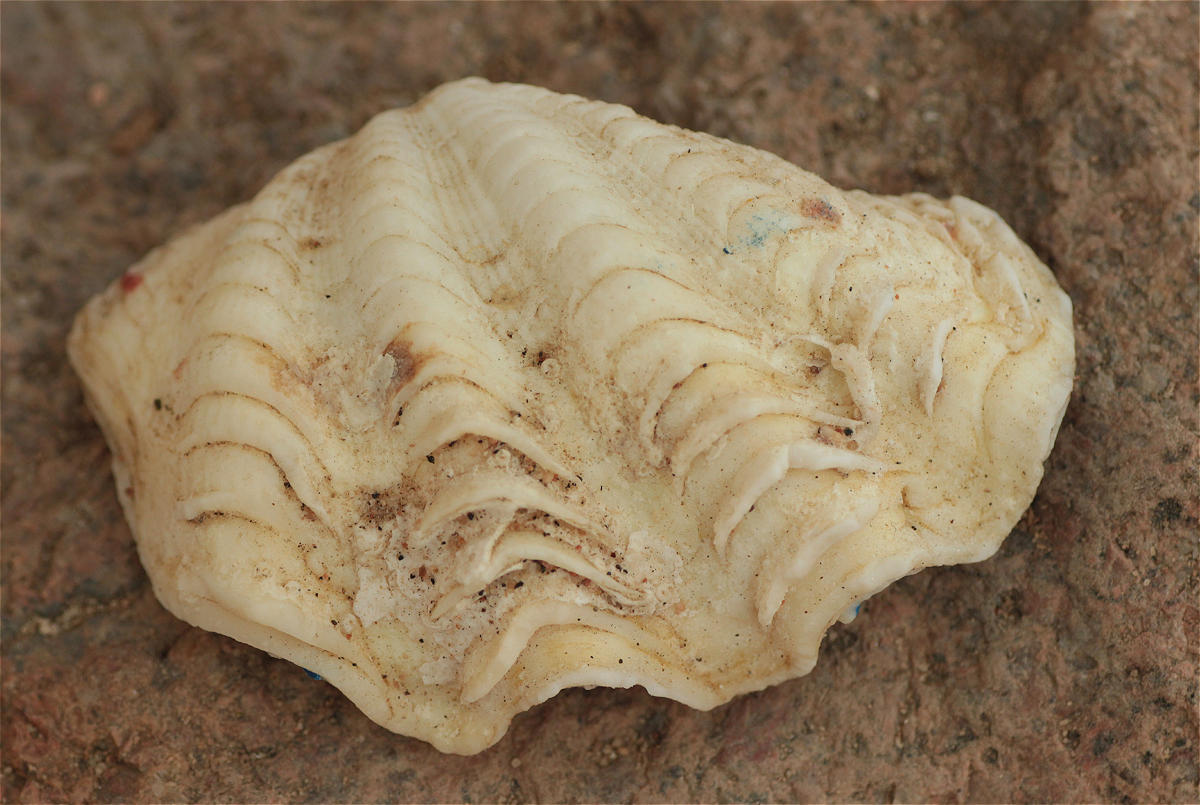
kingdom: Animalia
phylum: Mollusca
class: Bivalvia
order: Cardiida
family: Cardiidae
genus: Tridacna
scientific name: Tridacna maxima
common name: Small giant clam
